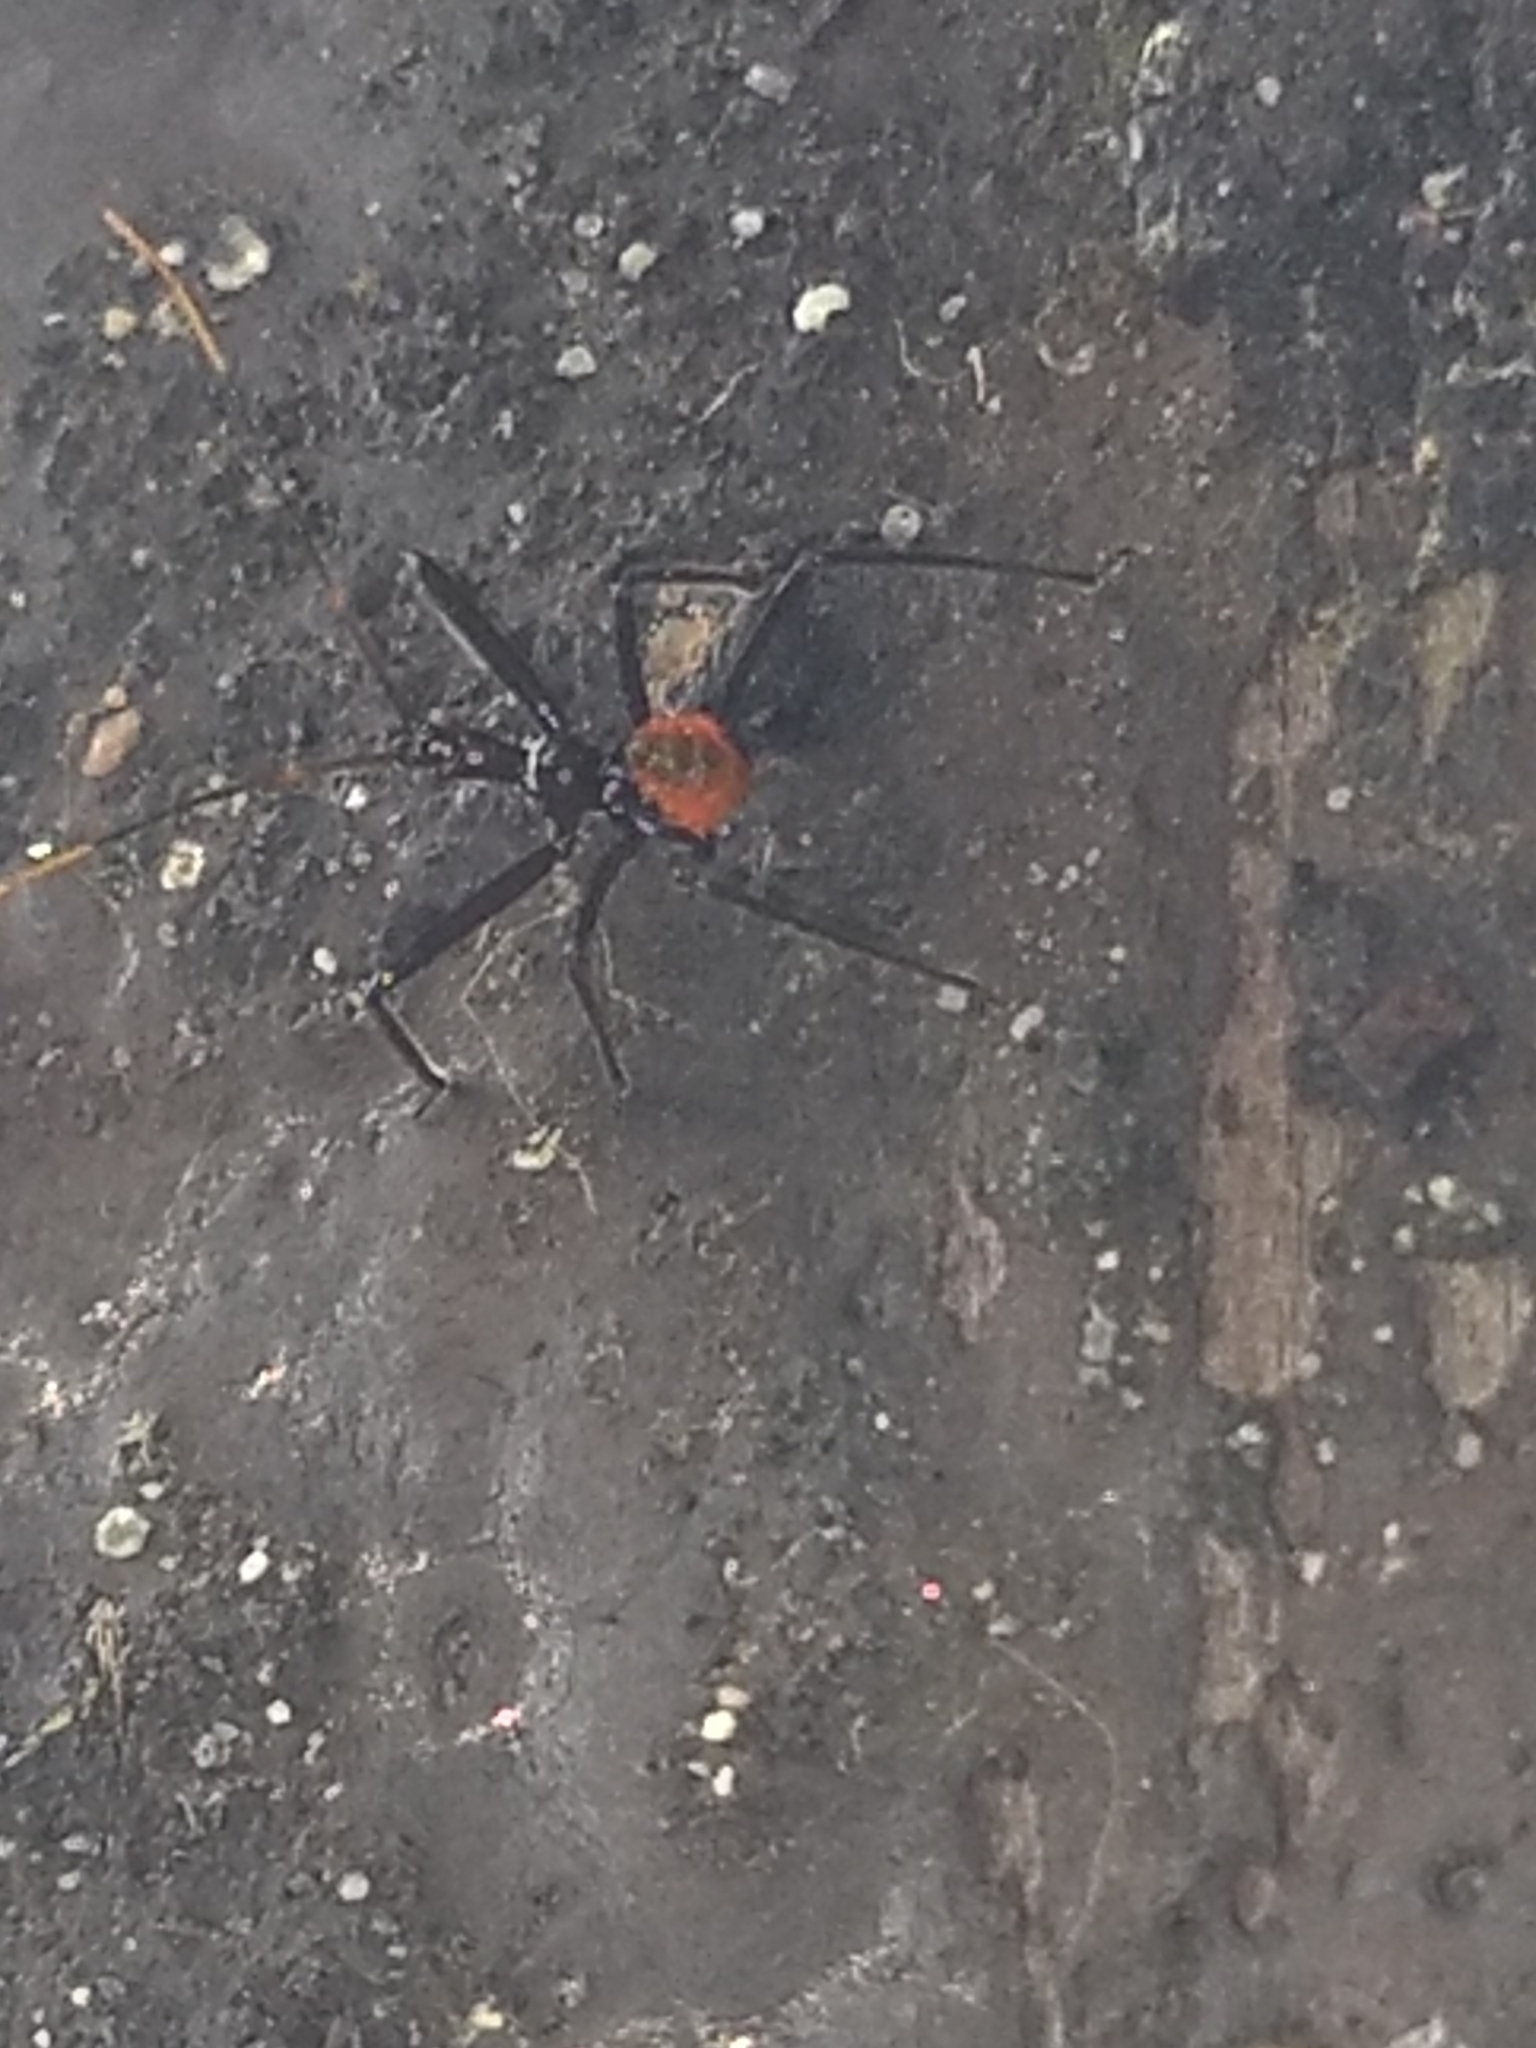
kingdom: Animalia
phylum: Arthropoda
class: Insecta
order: Hemiptera
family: Reduviidae
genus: Arilus
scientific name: Arilus cristatus
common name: North american wheel bug
